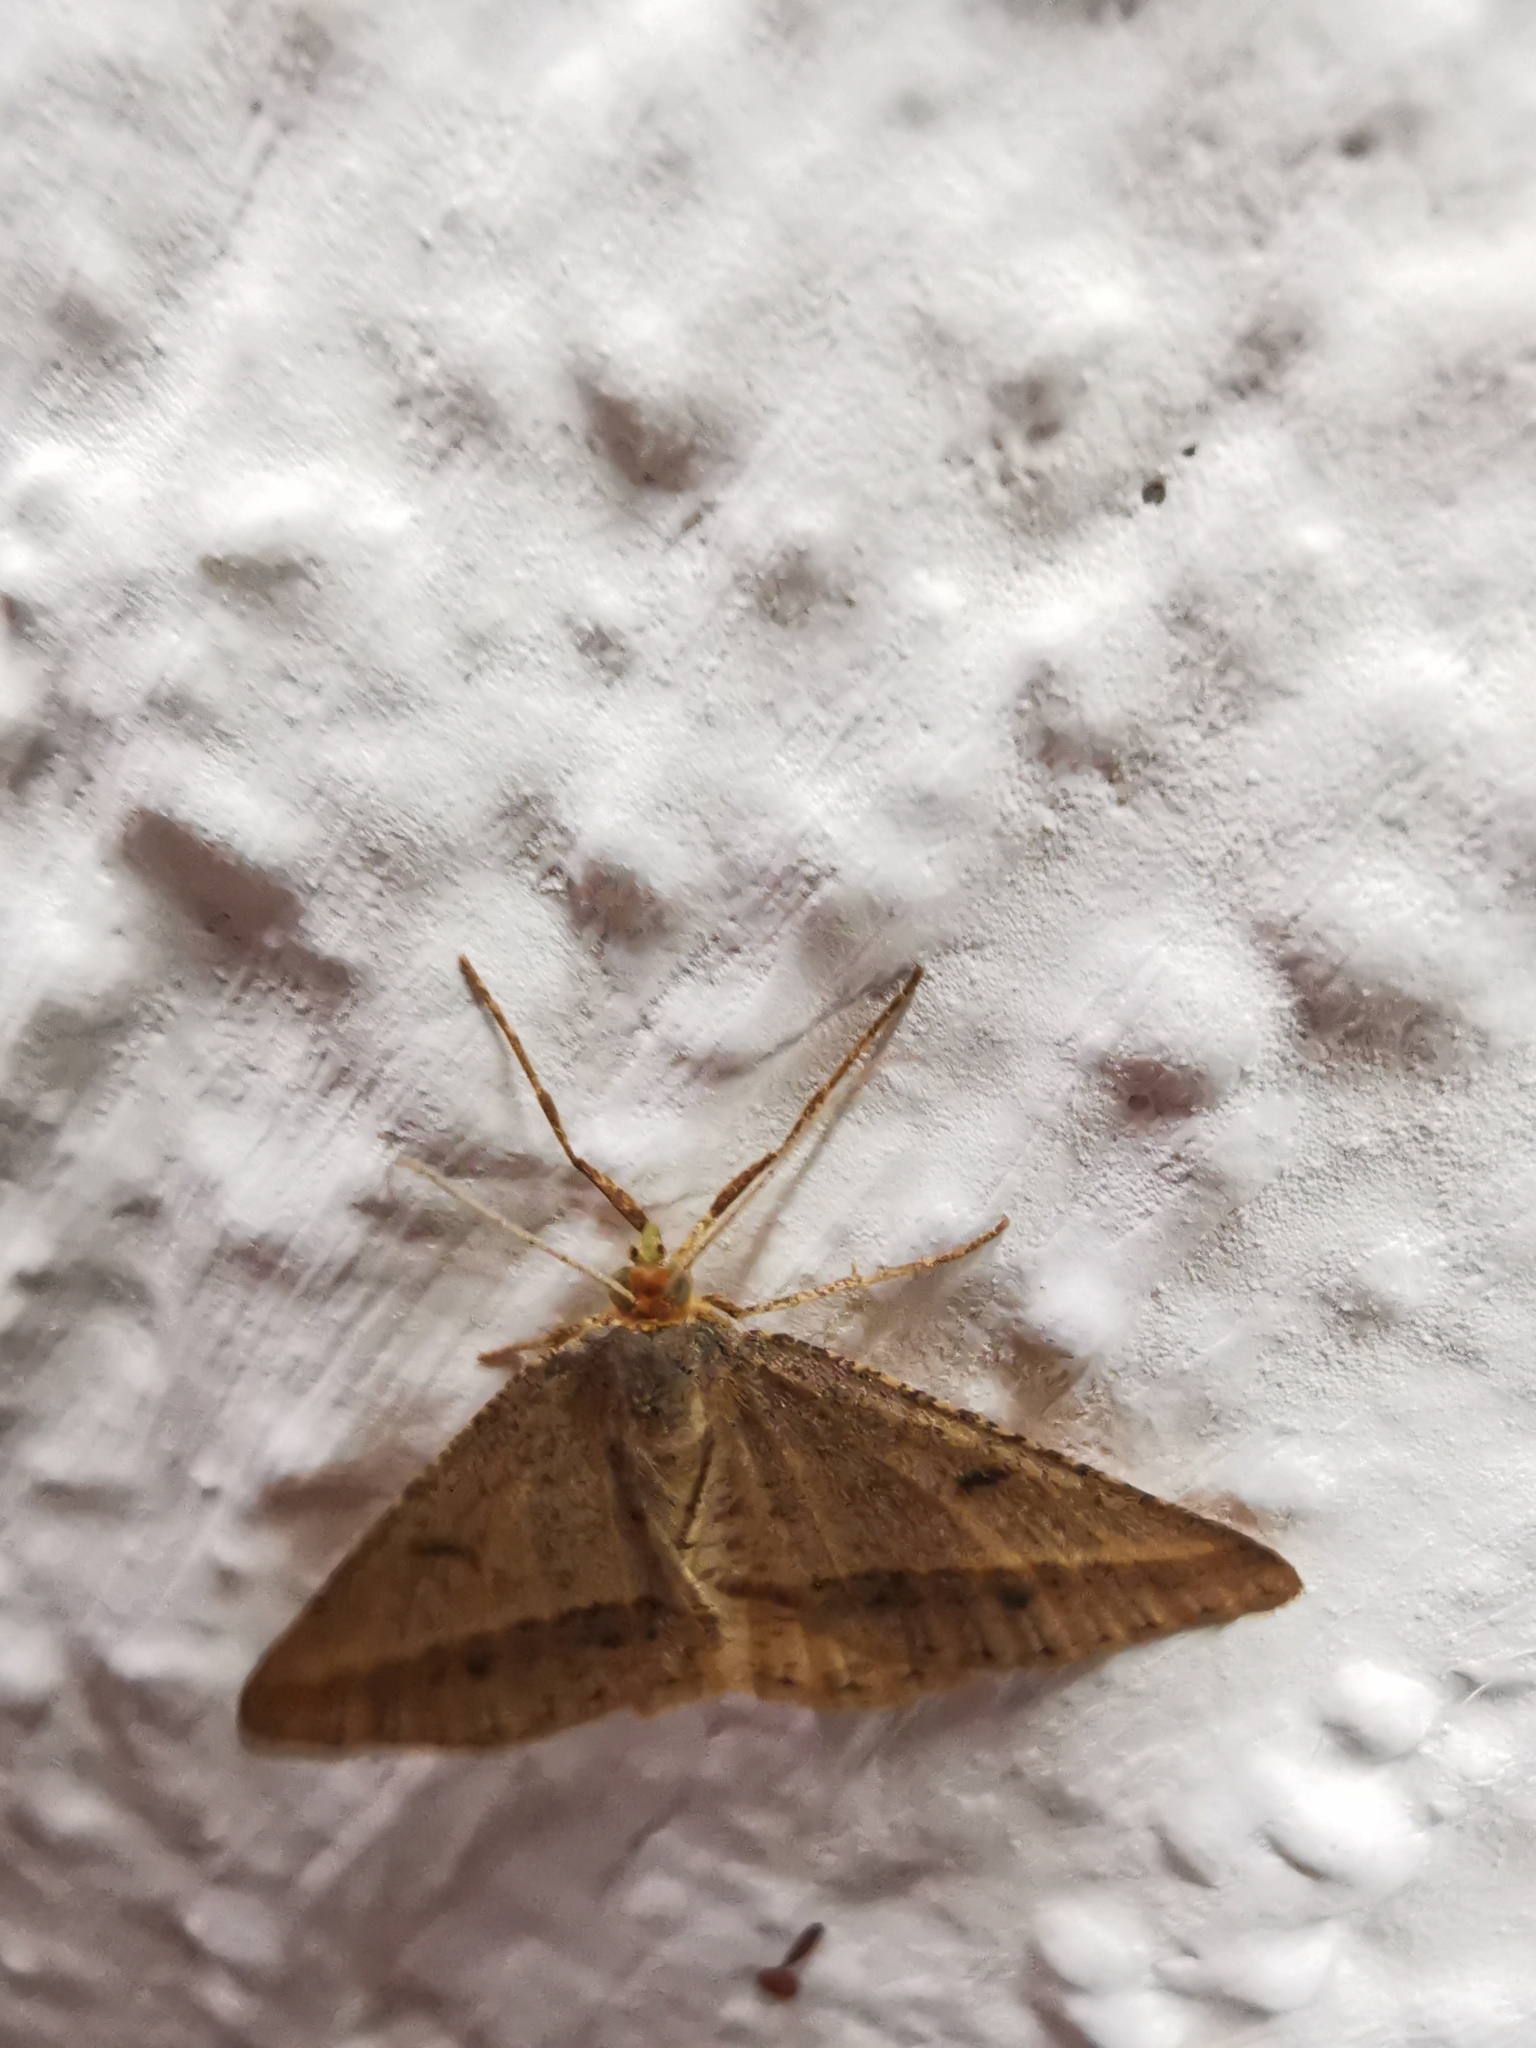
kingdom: Animalia
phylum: Arthropoda
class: Insecta
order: Lepidoptera
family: Geometridae
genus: Tephrina
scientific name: Tephrina arenacearia
